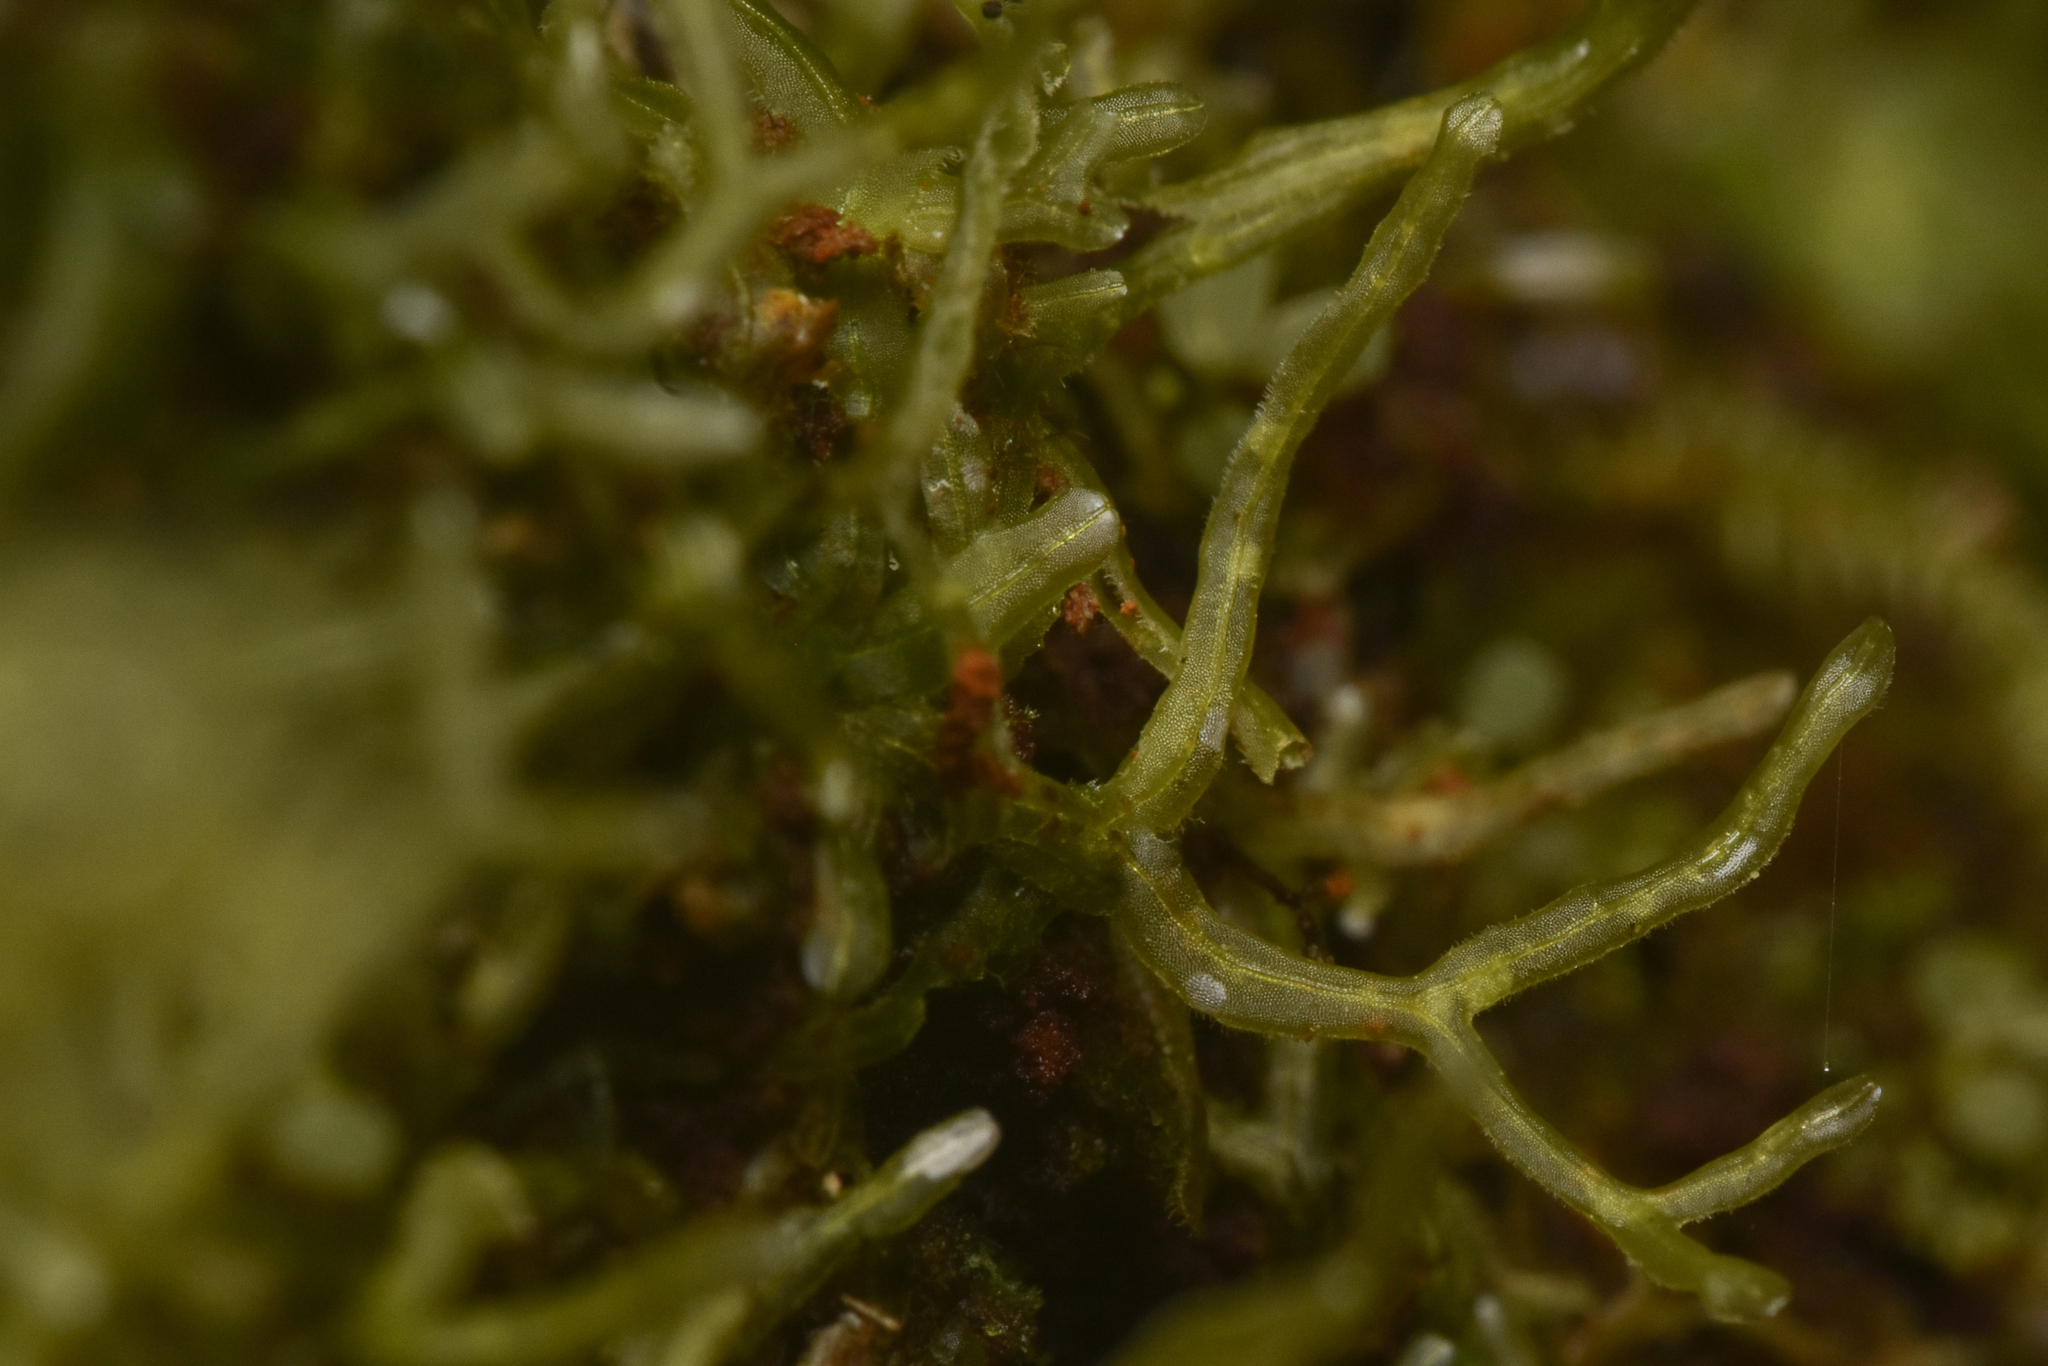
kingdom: Plantae
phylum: Marchantiophyta
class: Jungermanniopsida
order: Metzgeriales
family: Metzgeriaceae
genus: Metzgeria
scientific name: Metzgeria conjugata
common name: Rock veilwort
